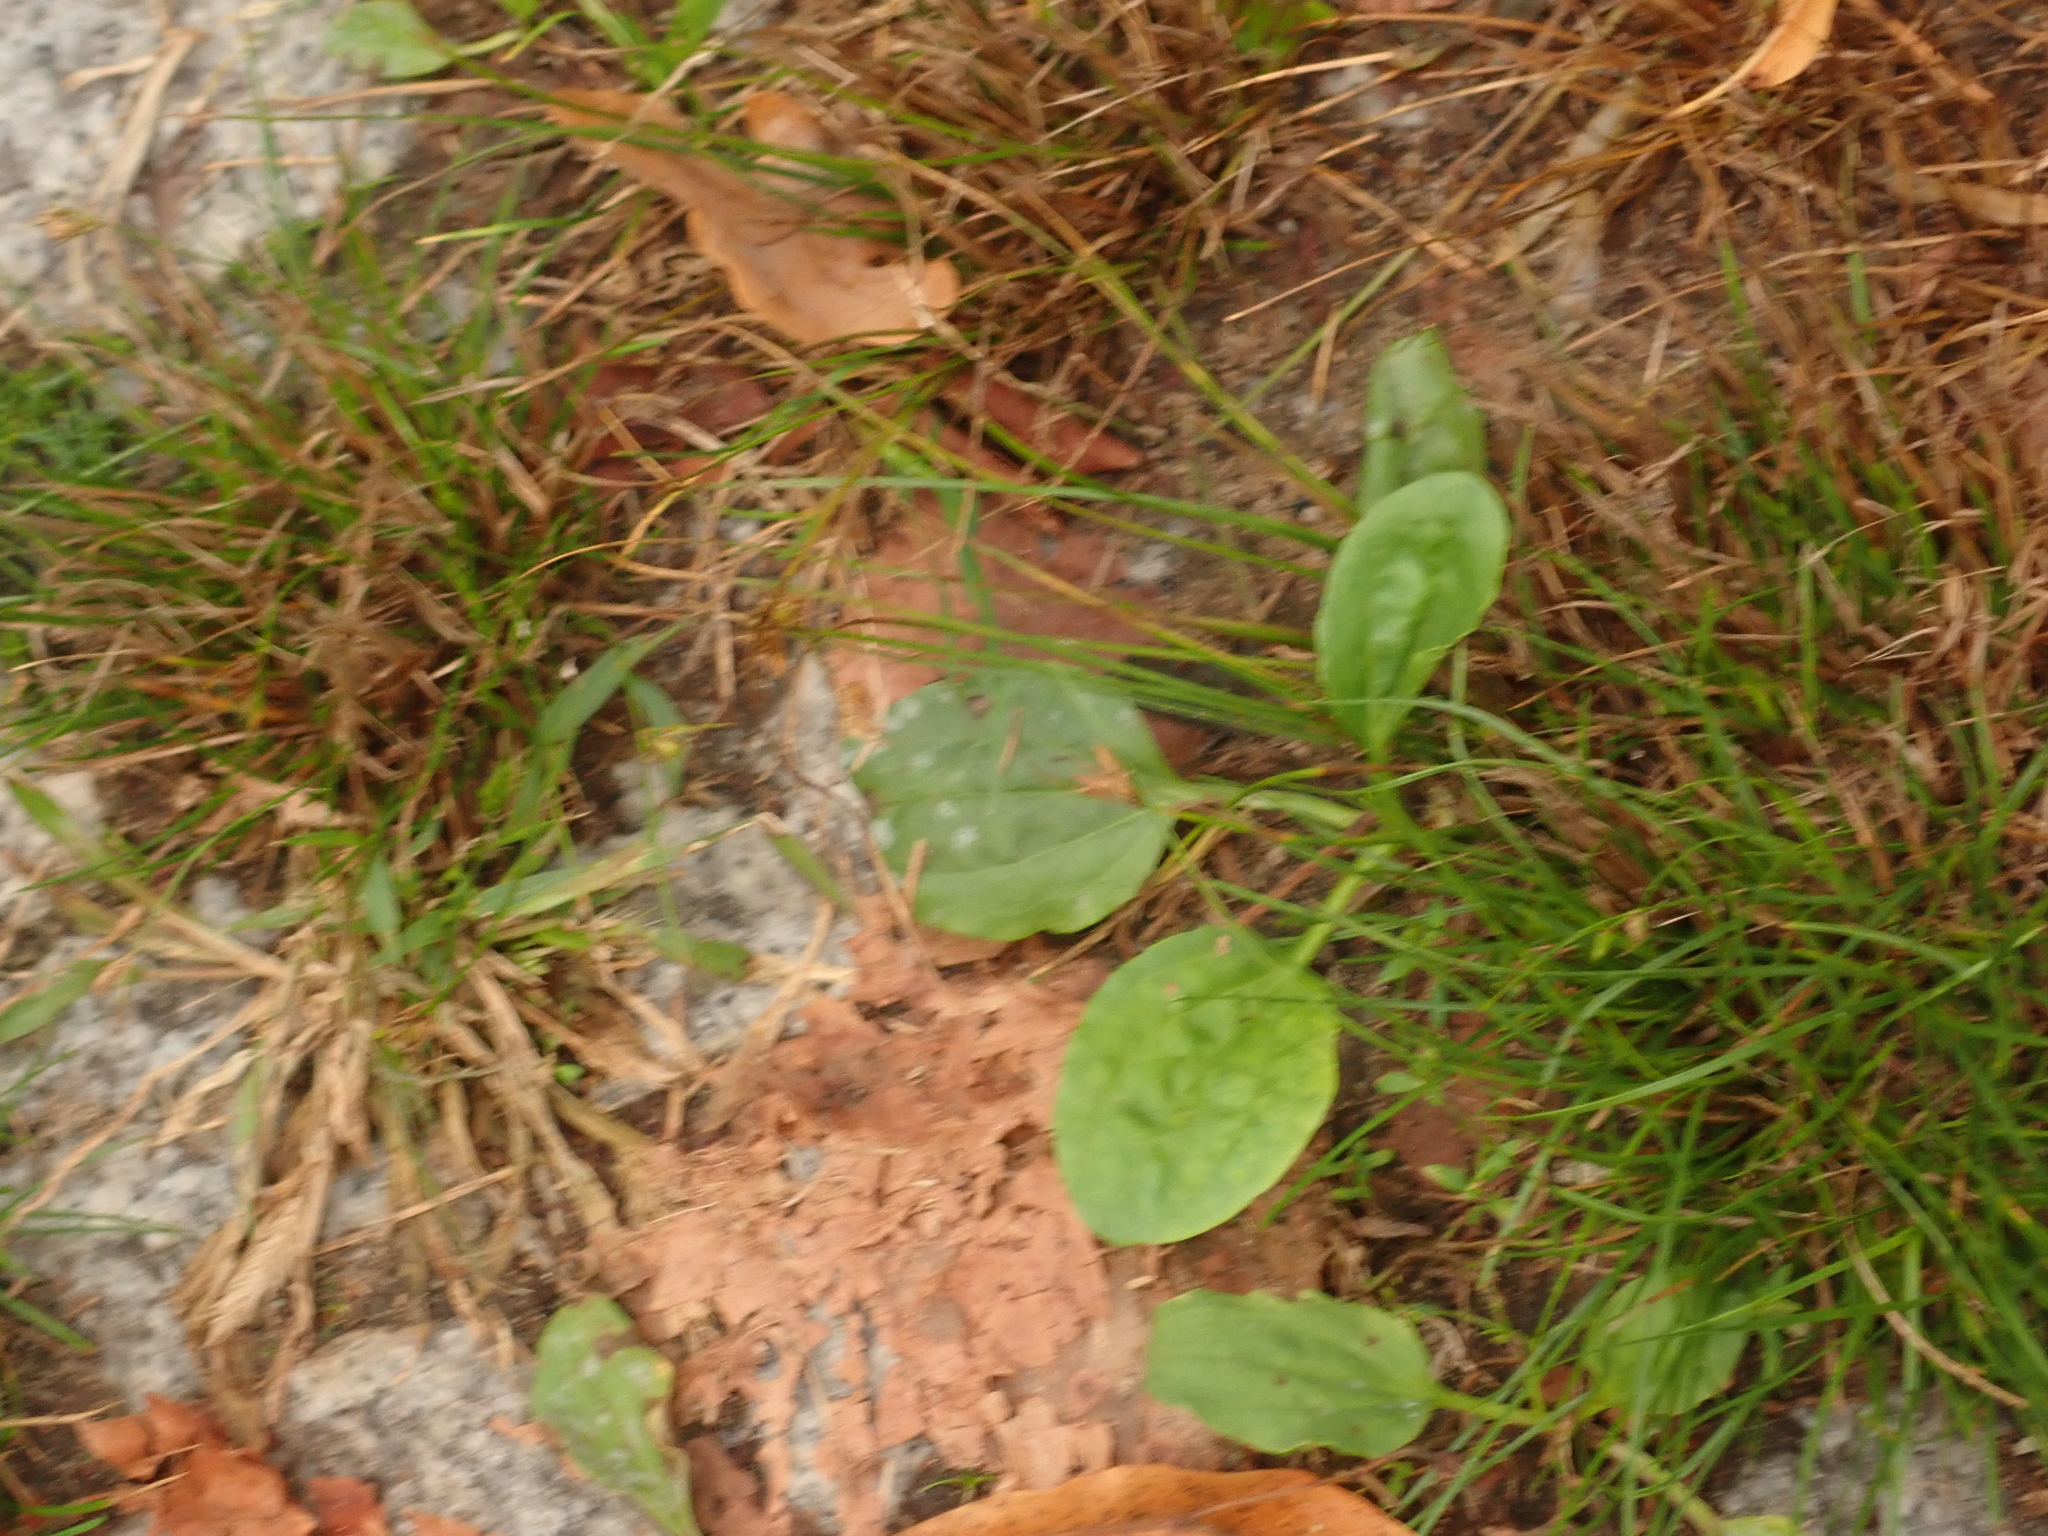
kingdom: Plantae
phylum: Tracheophyta
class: Magnoliopsida
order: Lamiales
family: Plantaginaceae
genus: Plantago
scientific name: Plantago major
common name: Common plantain
